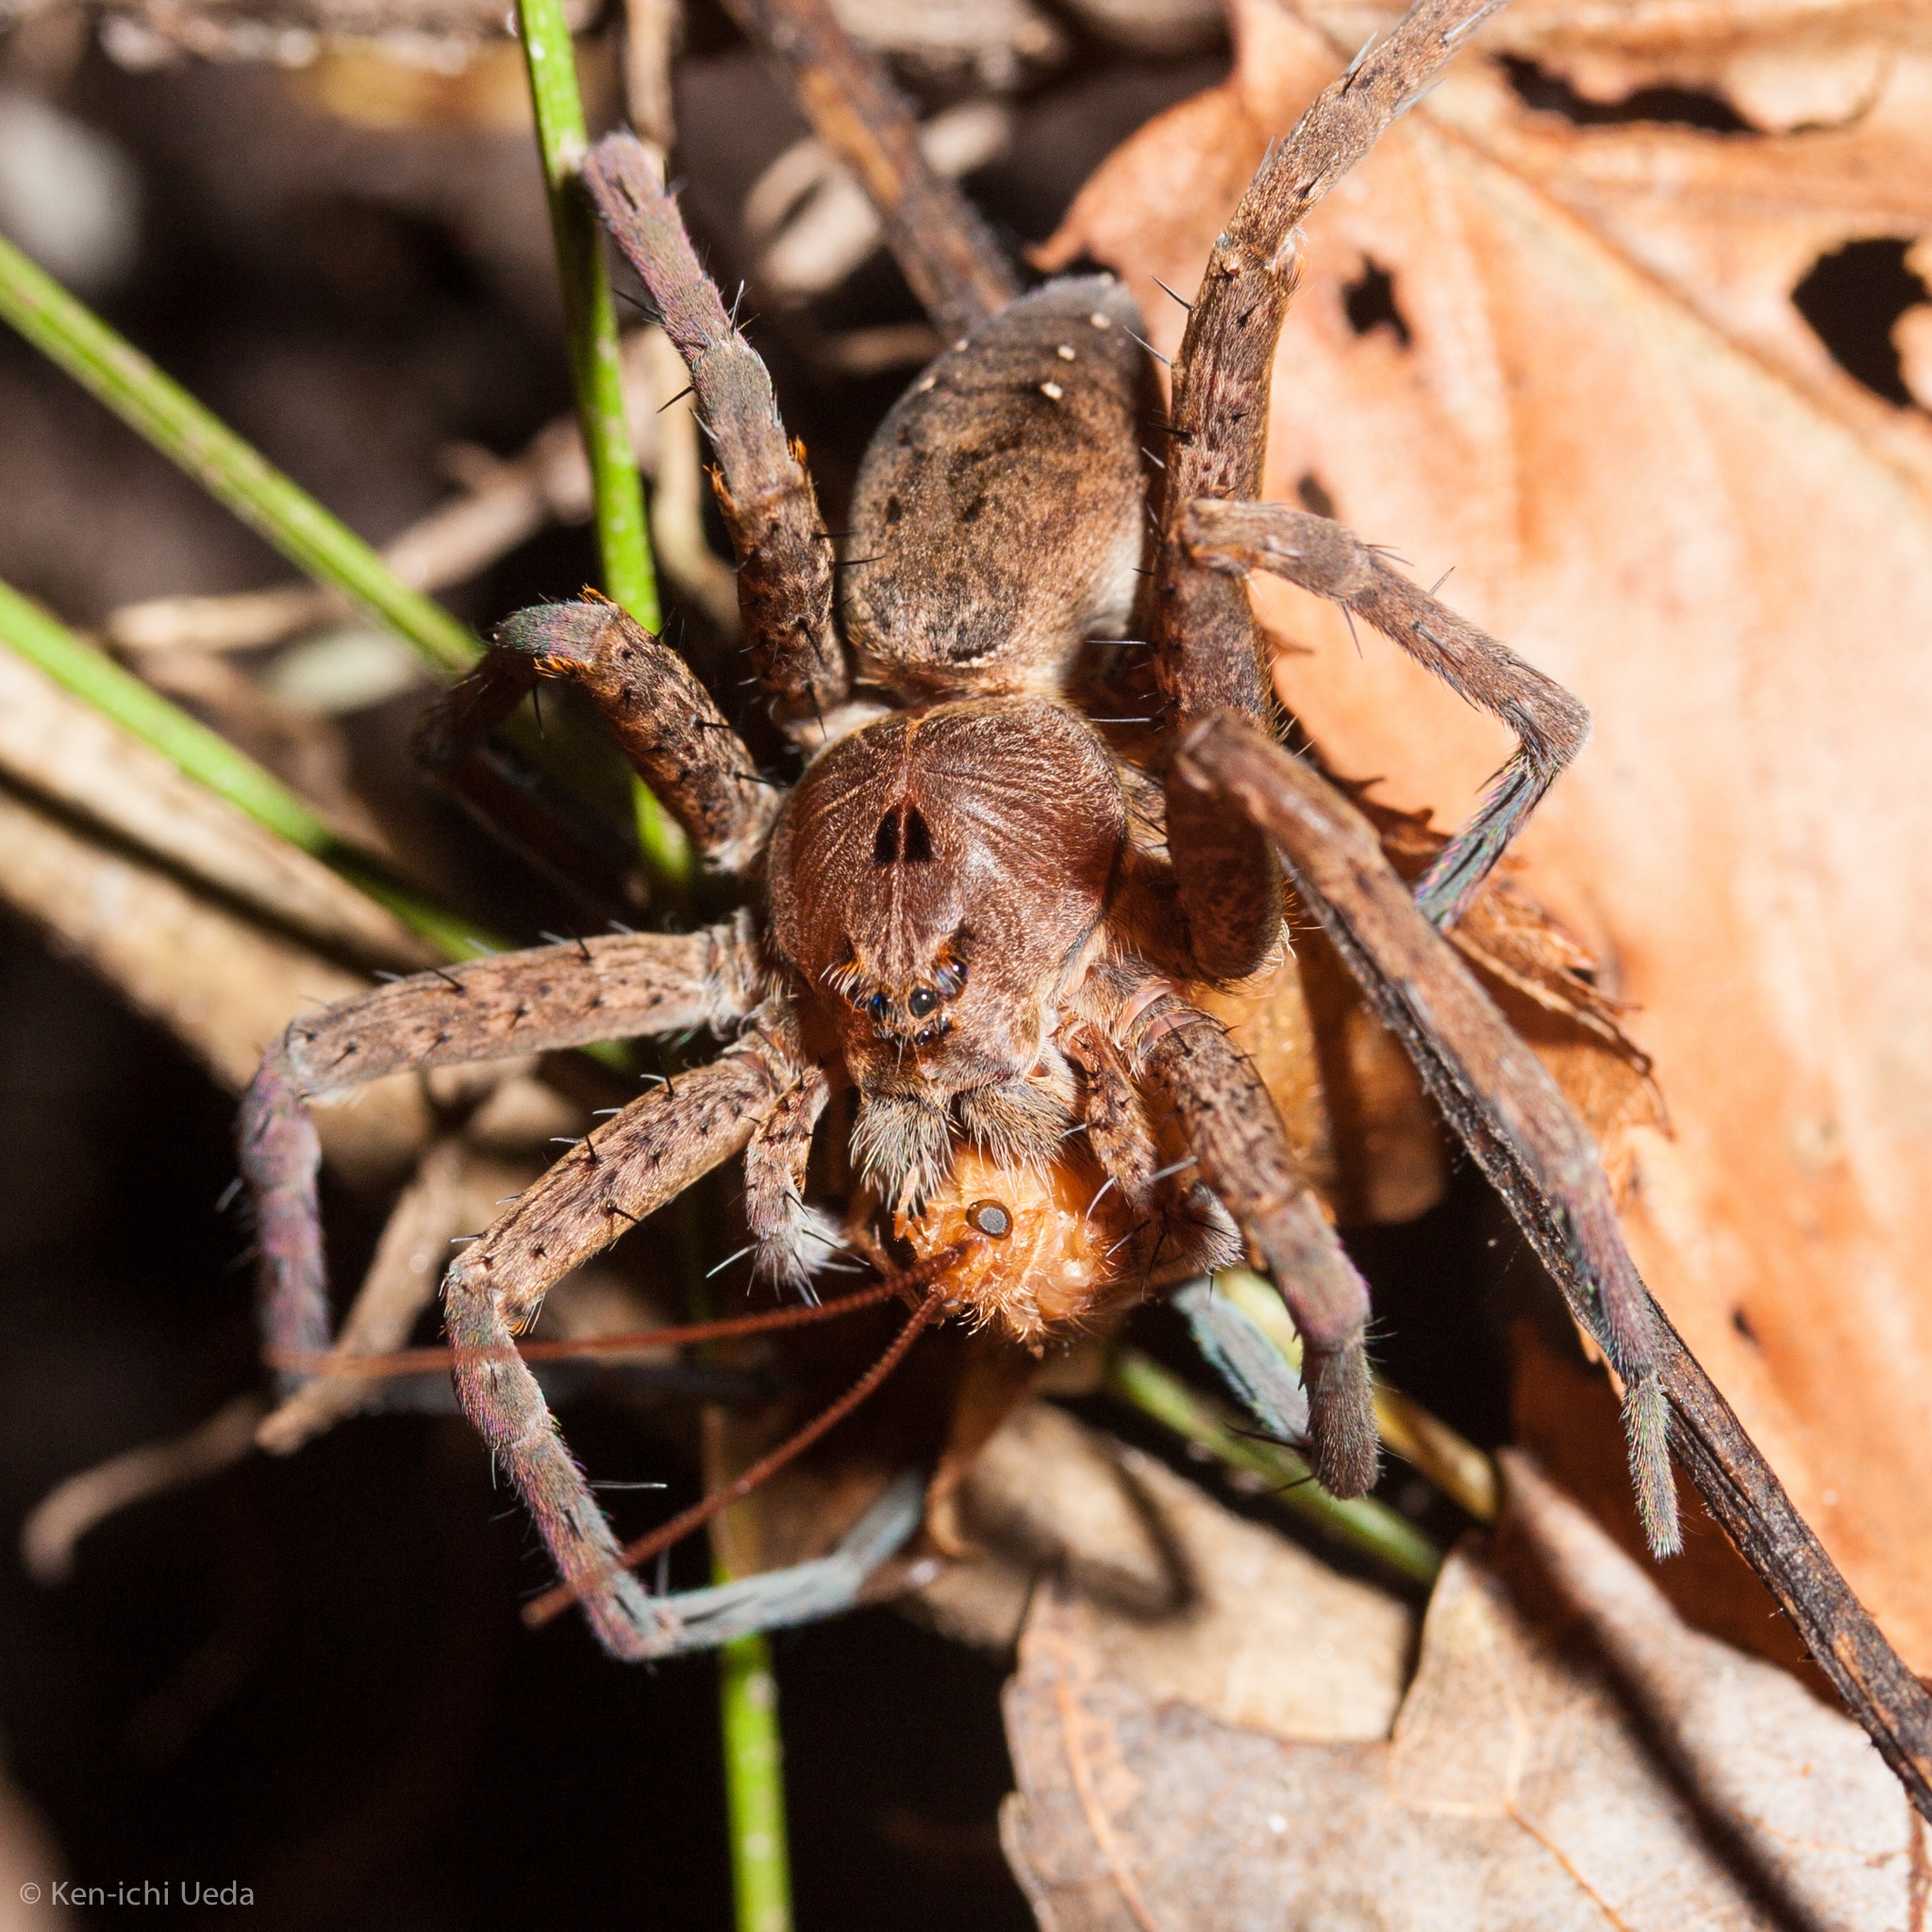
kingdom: Animalia
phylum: Arthropoda
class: Arachnida
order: Araneae
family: Pisauridae
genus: Dolomedes
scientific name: Dolomedes vittatus
